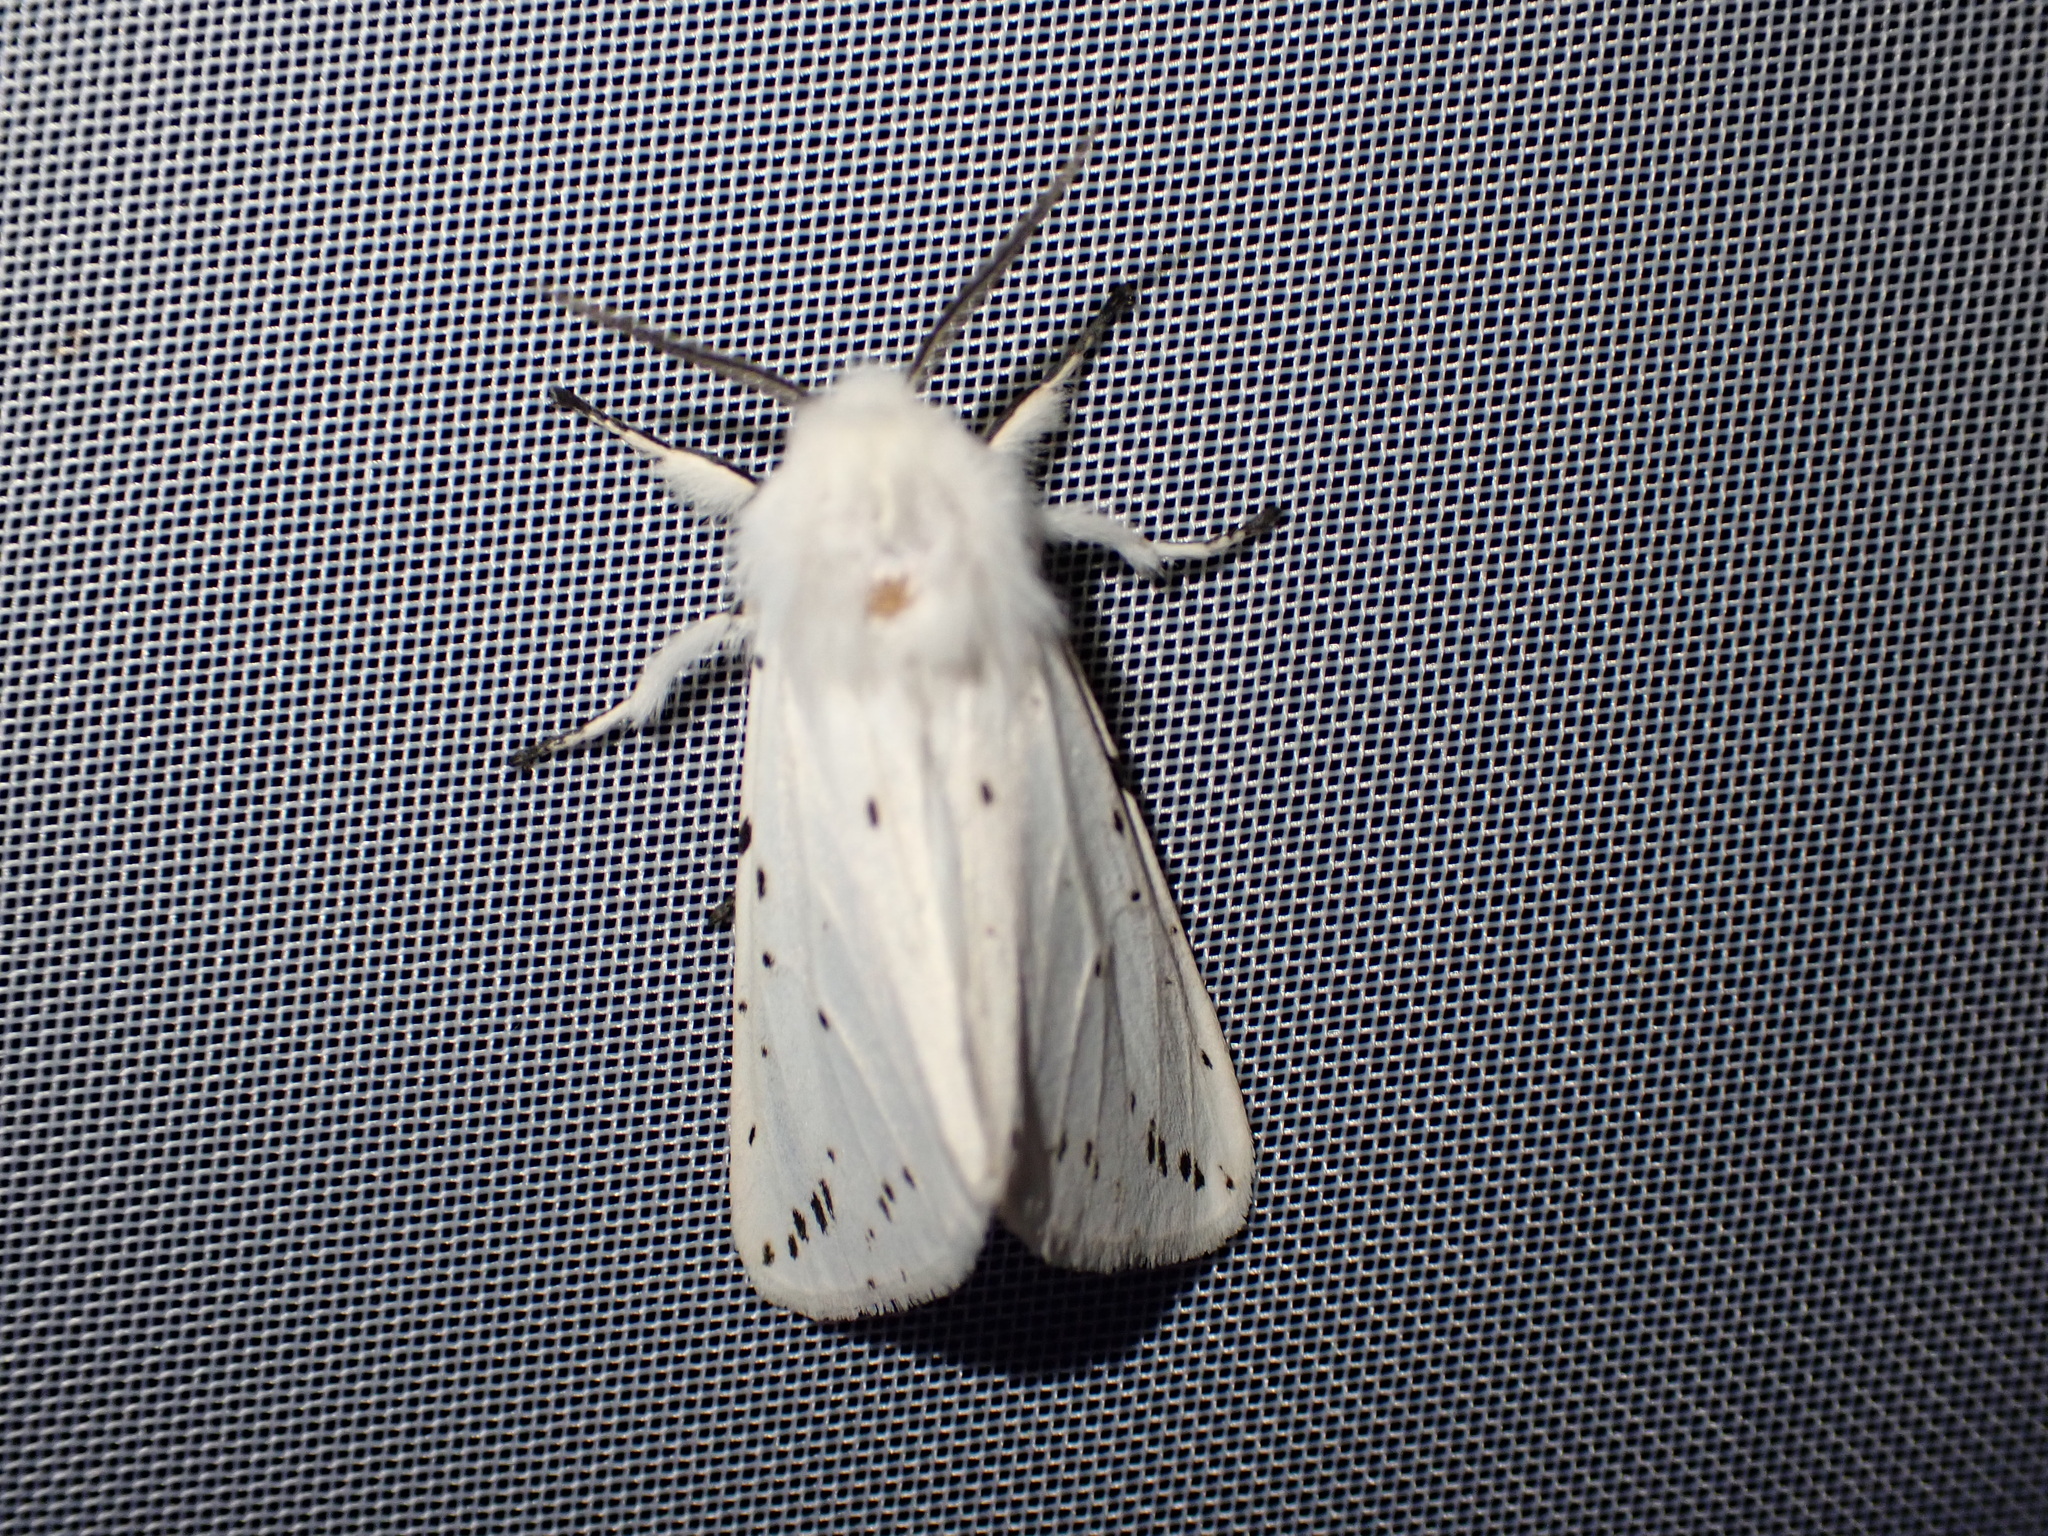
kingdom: Animalia
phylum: Arthropoda
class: Insecta
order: Lepidoptera
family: Erebidae
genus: Spilosoma
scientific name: Spilosoma lubricipeda
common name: White ermine
